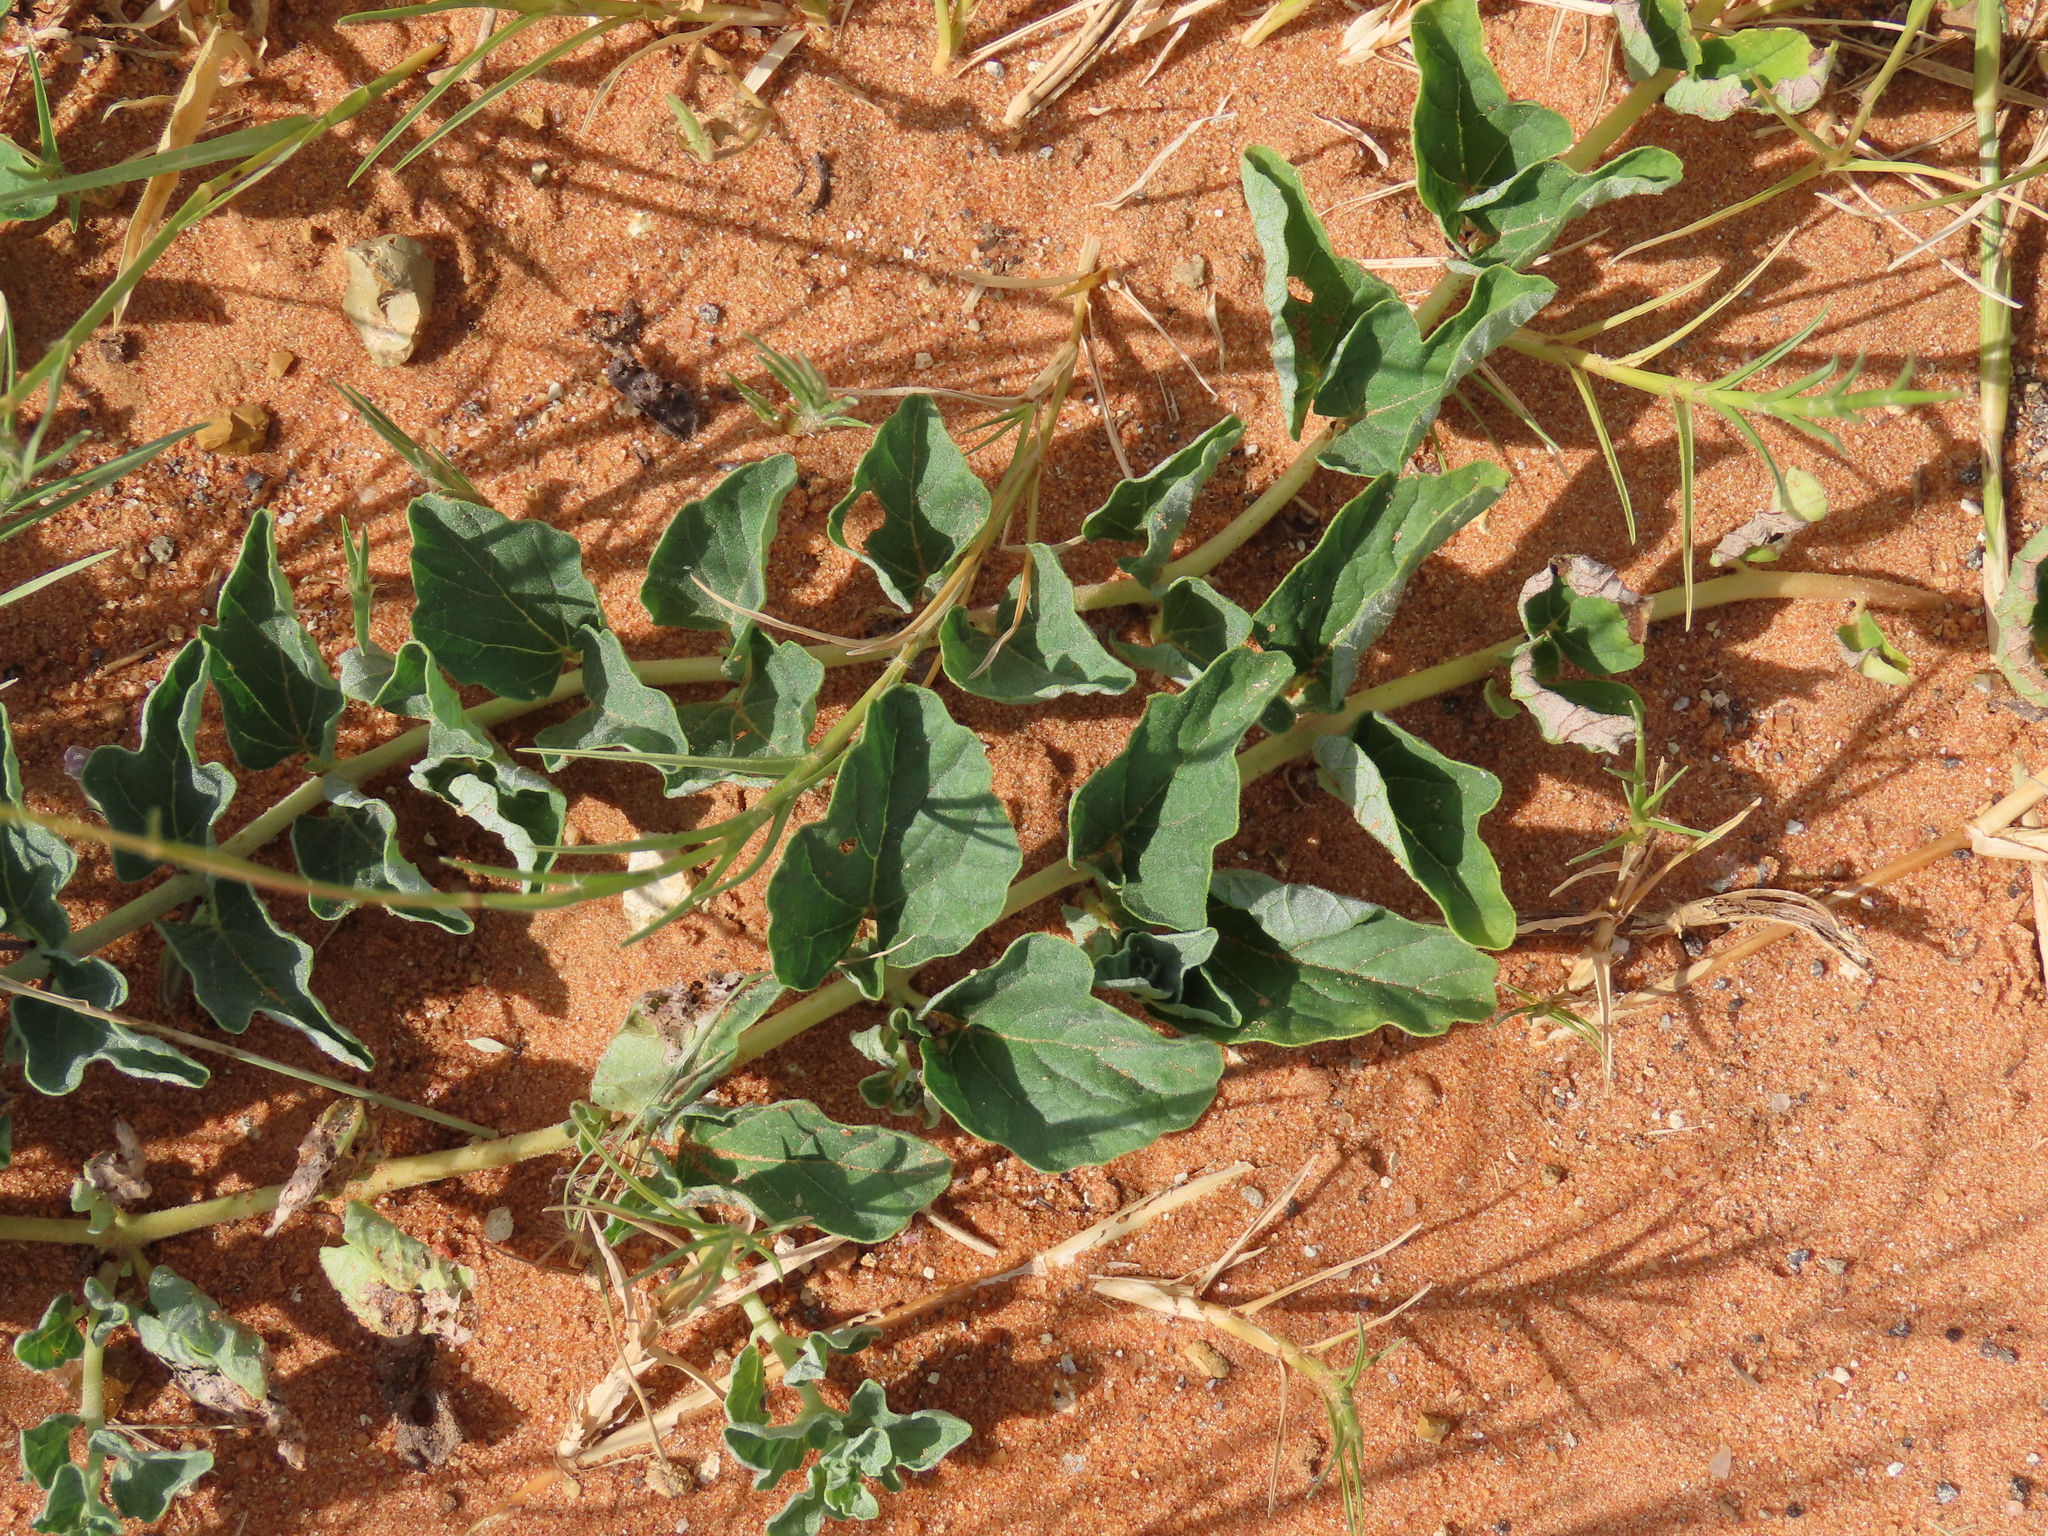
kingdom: Plantae
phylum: Tracheophyta
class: Magnoliopsida
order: Lamiales
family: Pedaliaceae
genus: Harpagophytum
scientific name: Harpagophytum zeyheri
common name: Grappleplant
